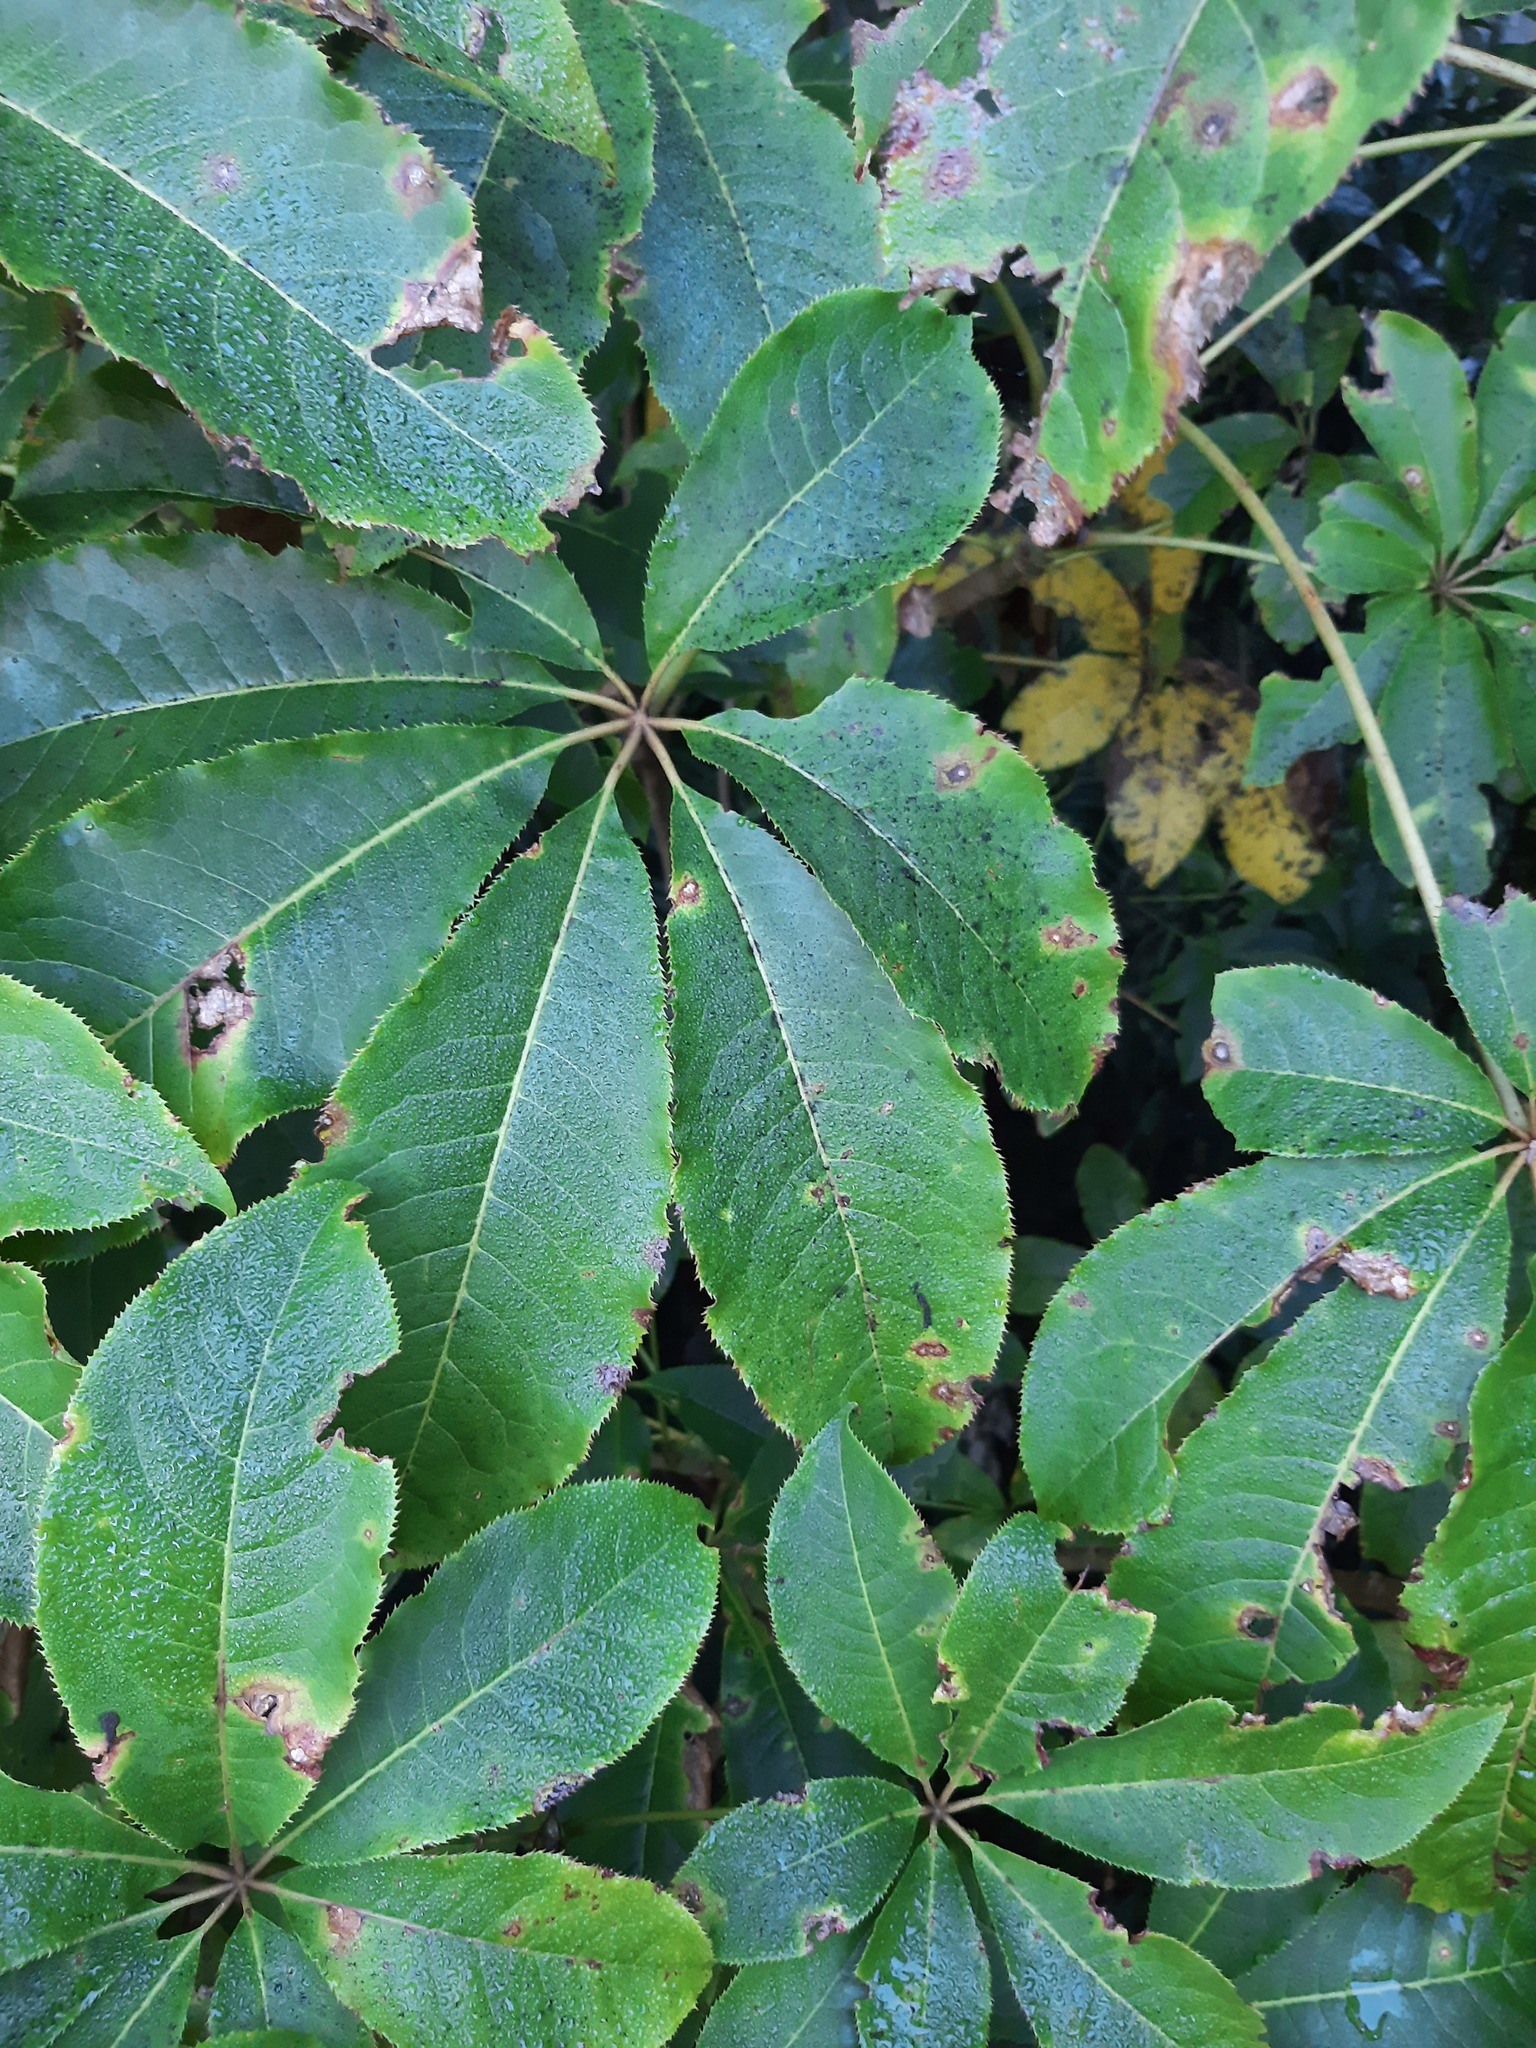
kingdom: Plantae
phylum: Tracheophyta
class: Magnoliopsida
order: Apiales
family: Araliaceae
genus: Schefflera
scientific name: Schefflera digitata
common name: Pate
